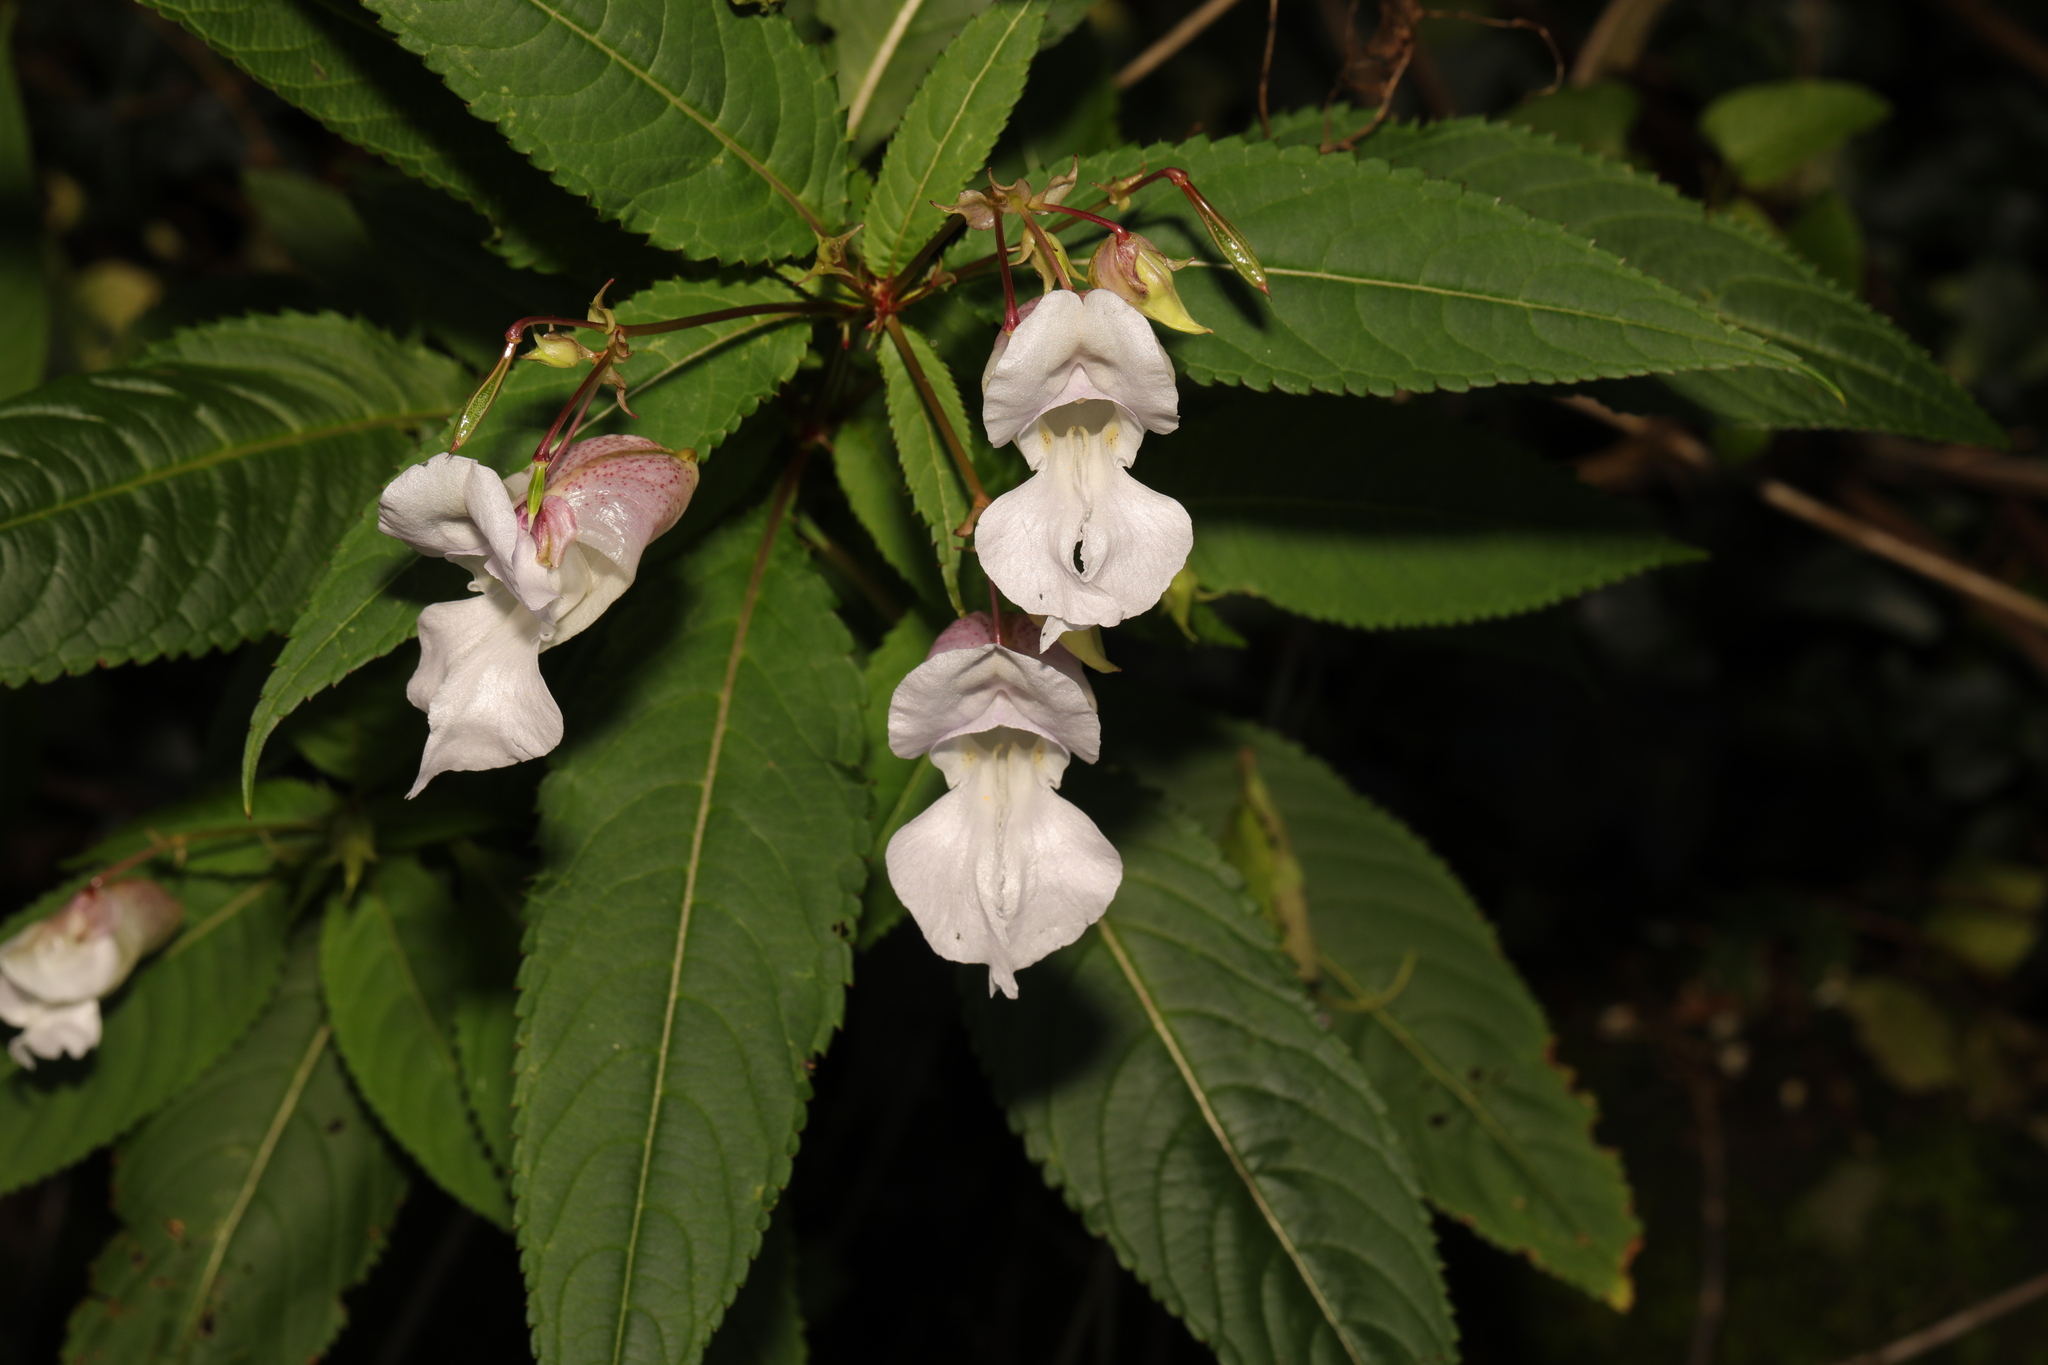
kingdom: Plantae
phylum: Tracheophyta
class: Magnoliopsida
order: Ericales
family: Balsaminaceae
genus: Impatiens
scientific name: Impatiens glandulifera
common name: Himalayan balsam
